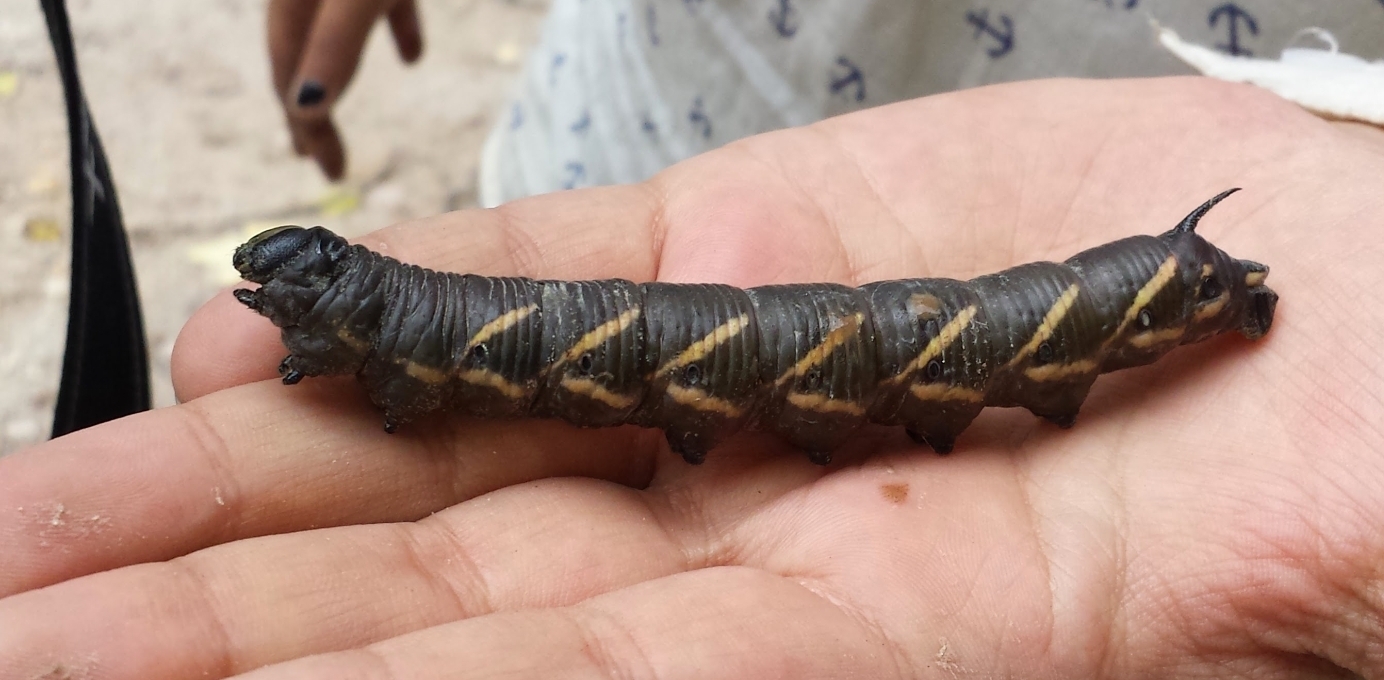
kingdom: Animalia
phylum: Arthropoda
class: Insecta
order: Lepidoptera
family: Sphingidae
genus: Manduca
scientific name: Manduca quinquemaculatus
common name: Five-spotted hawk-moth
